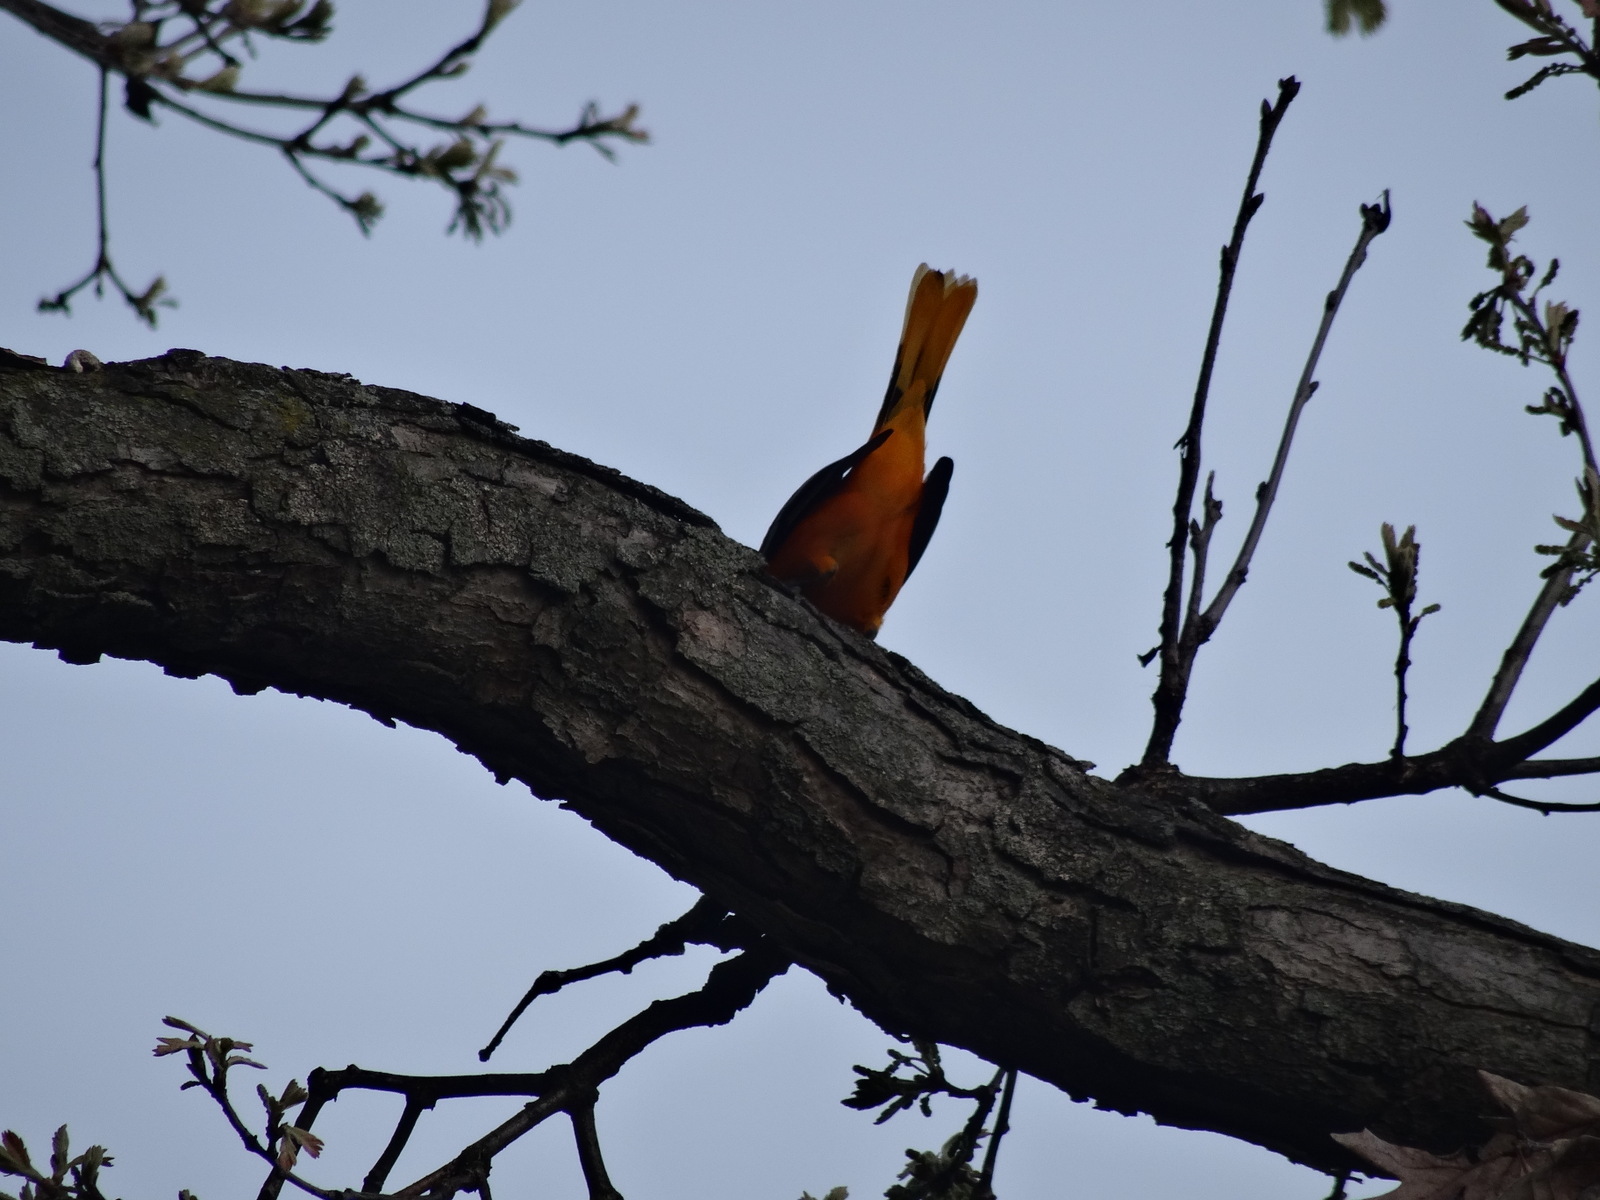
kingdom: Animalia
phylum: Chordata
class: Aves
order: Passeriformes
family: Icteridae
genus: Icterus
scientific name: Icterus galbula
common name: Baltimore oriole
